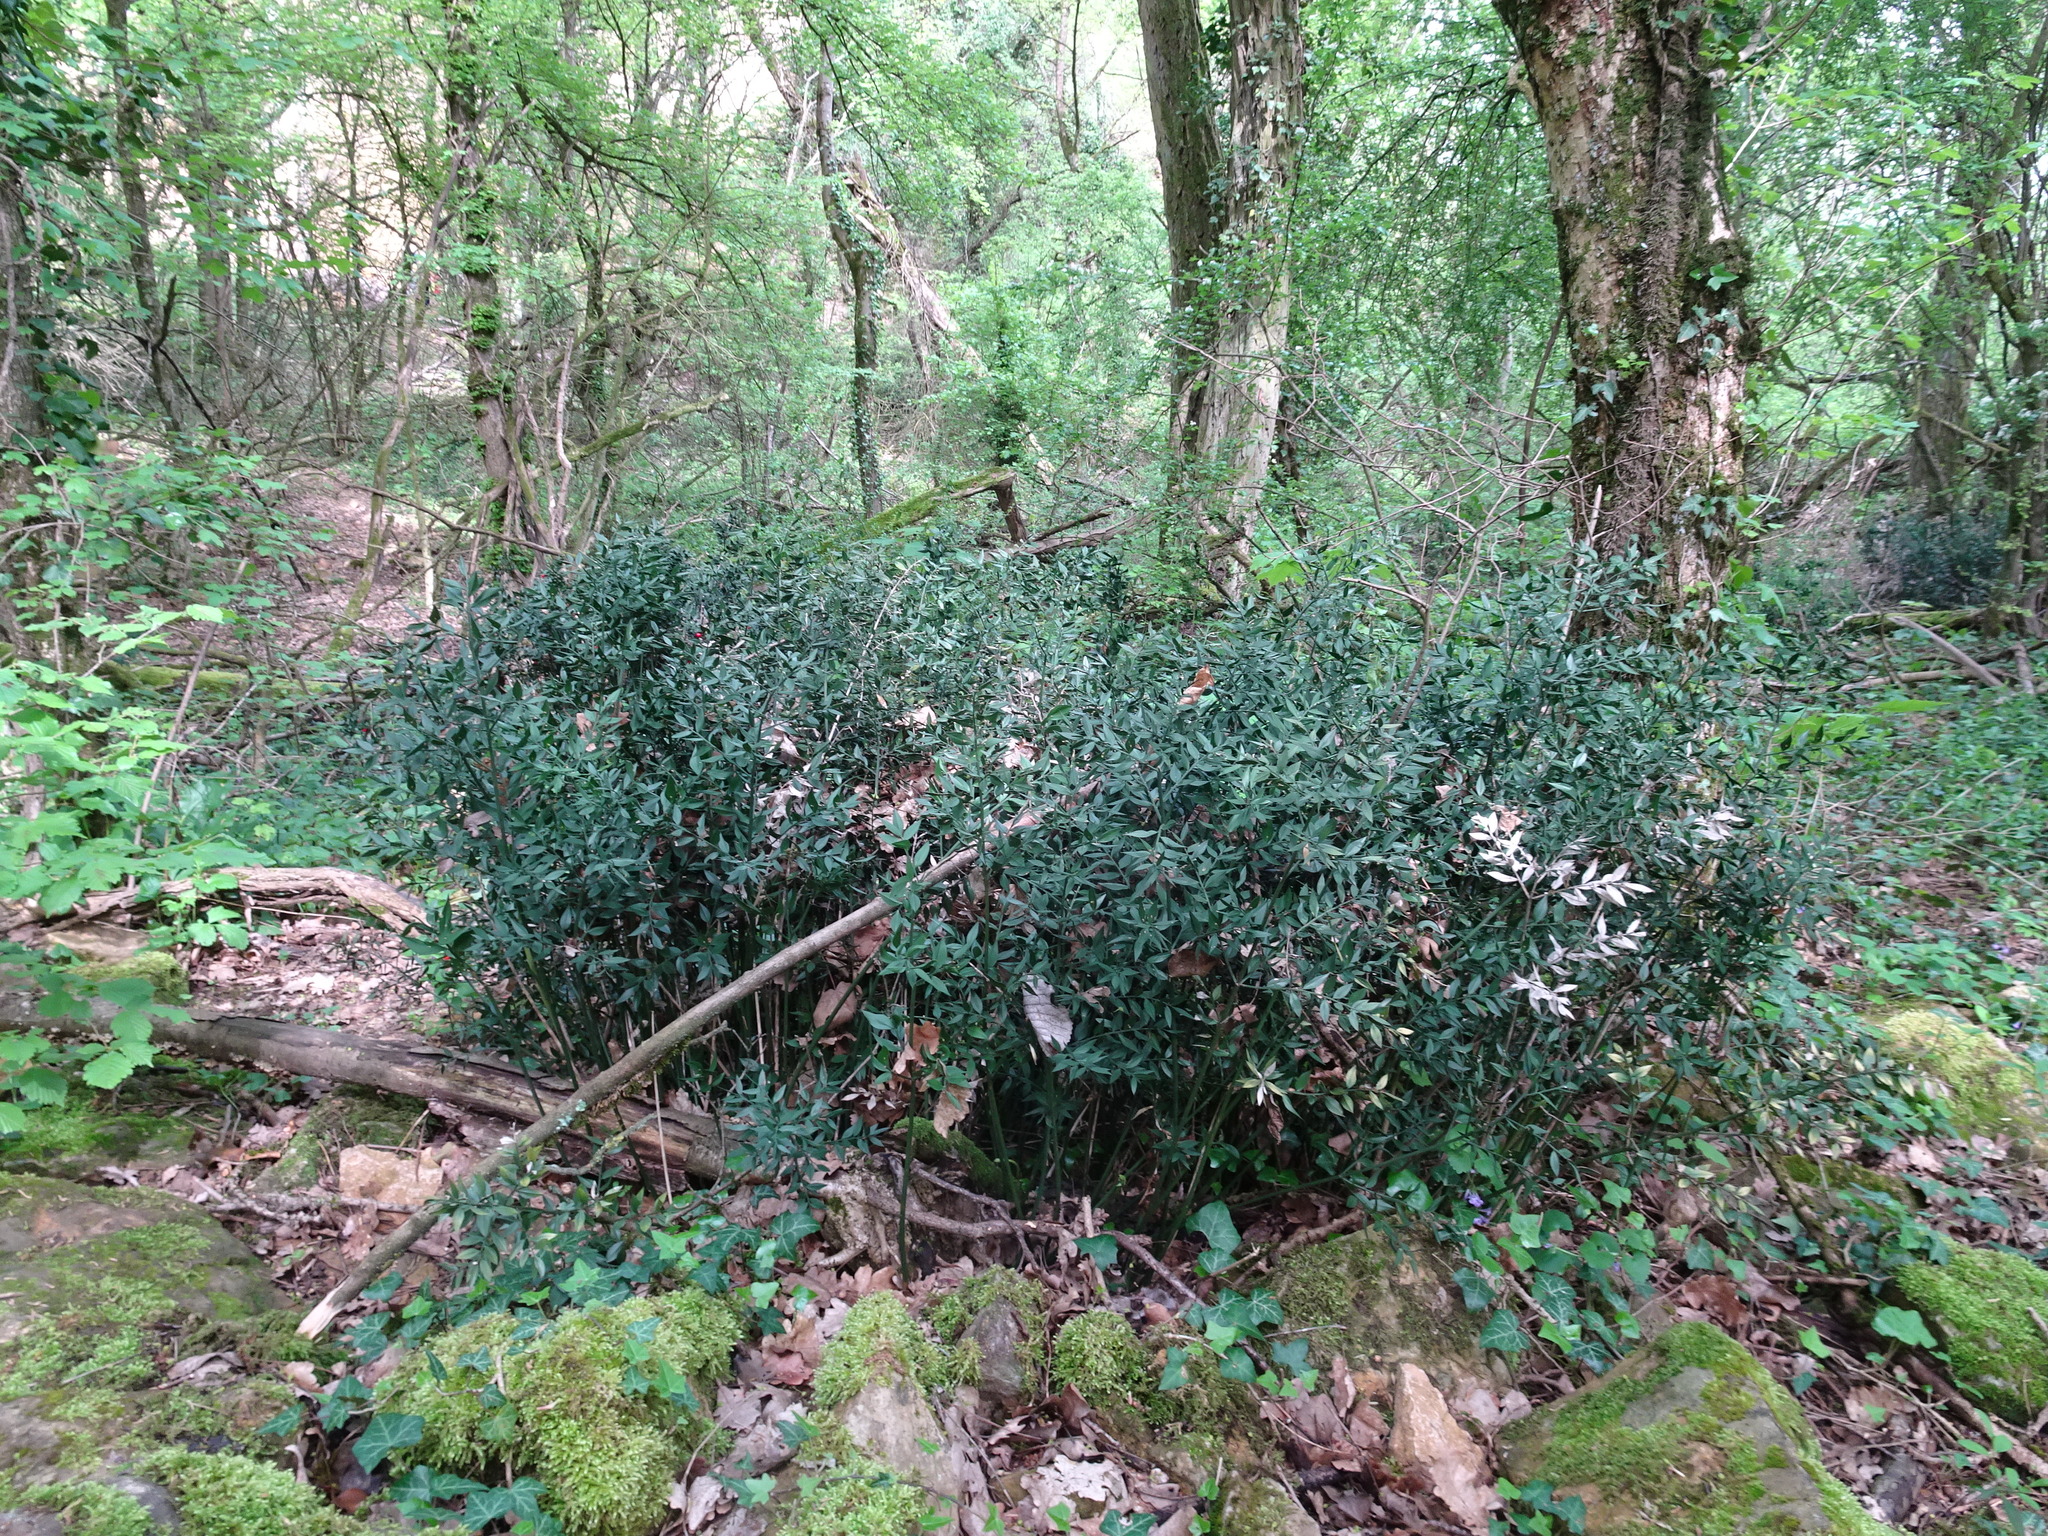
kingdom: Plantae
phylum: Tracheophyta
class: Liliopsida
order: Asparagales
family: Asparagaceae
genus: Ruscus
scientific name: Ruscus aculeatus
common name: Butcher's-broom
